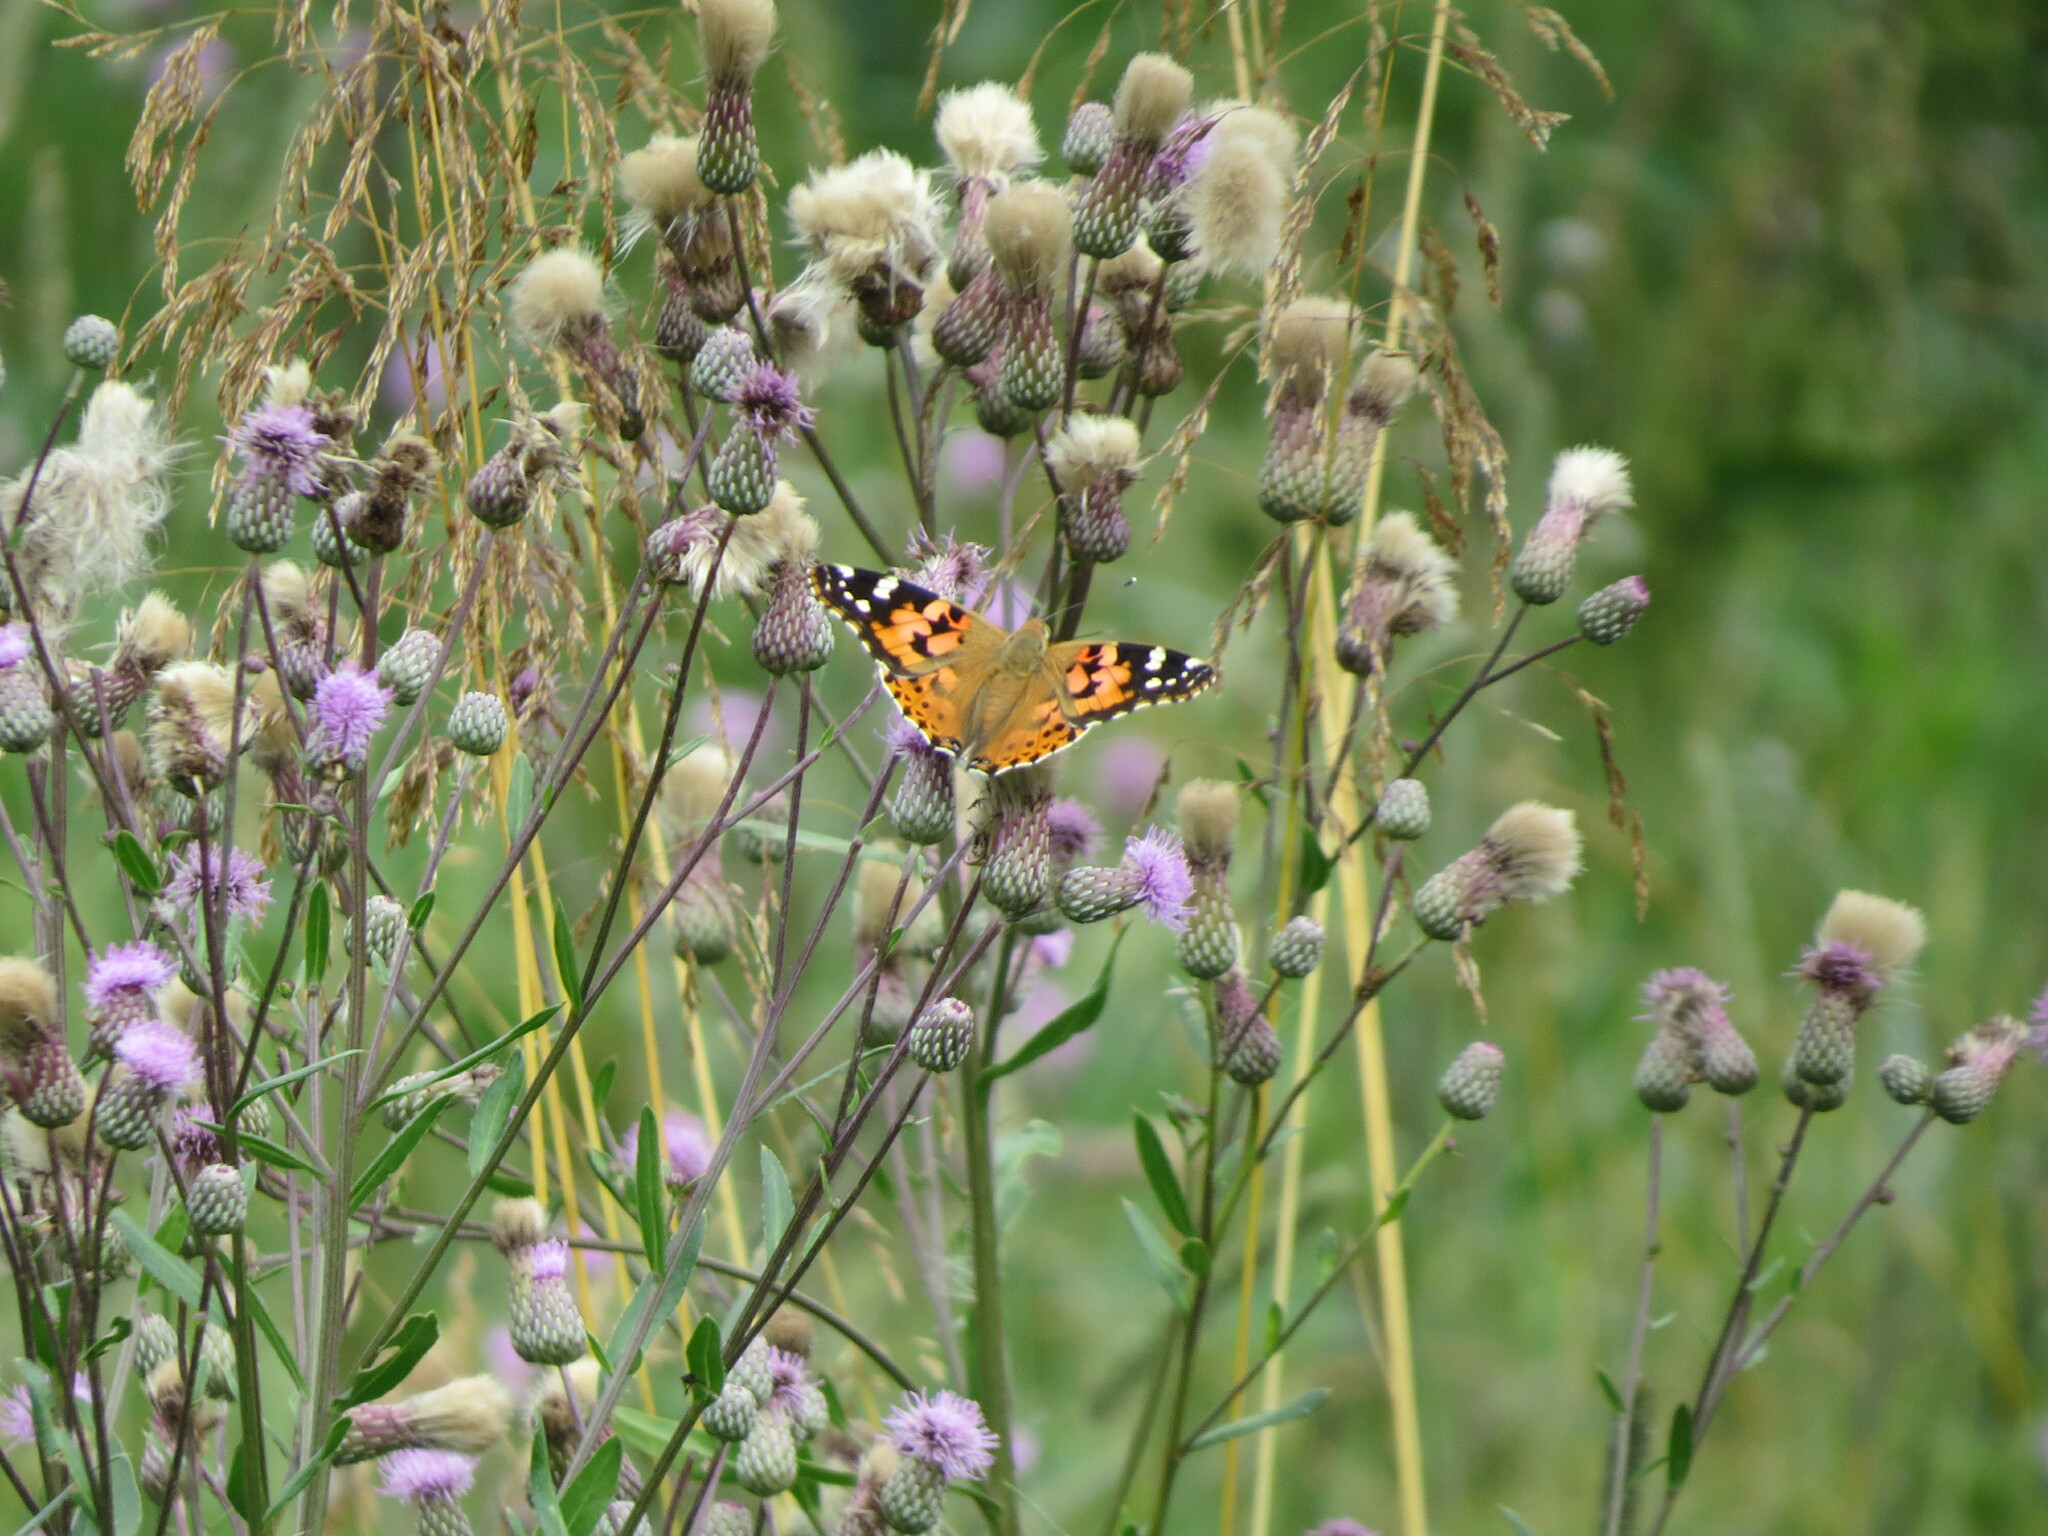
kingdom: Animalia
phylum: Arthropoda
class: Insecta
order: Lepidoptera
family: Nymphalidae
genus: Vanessa
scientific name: Vanessa cardui
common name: Painted lady
